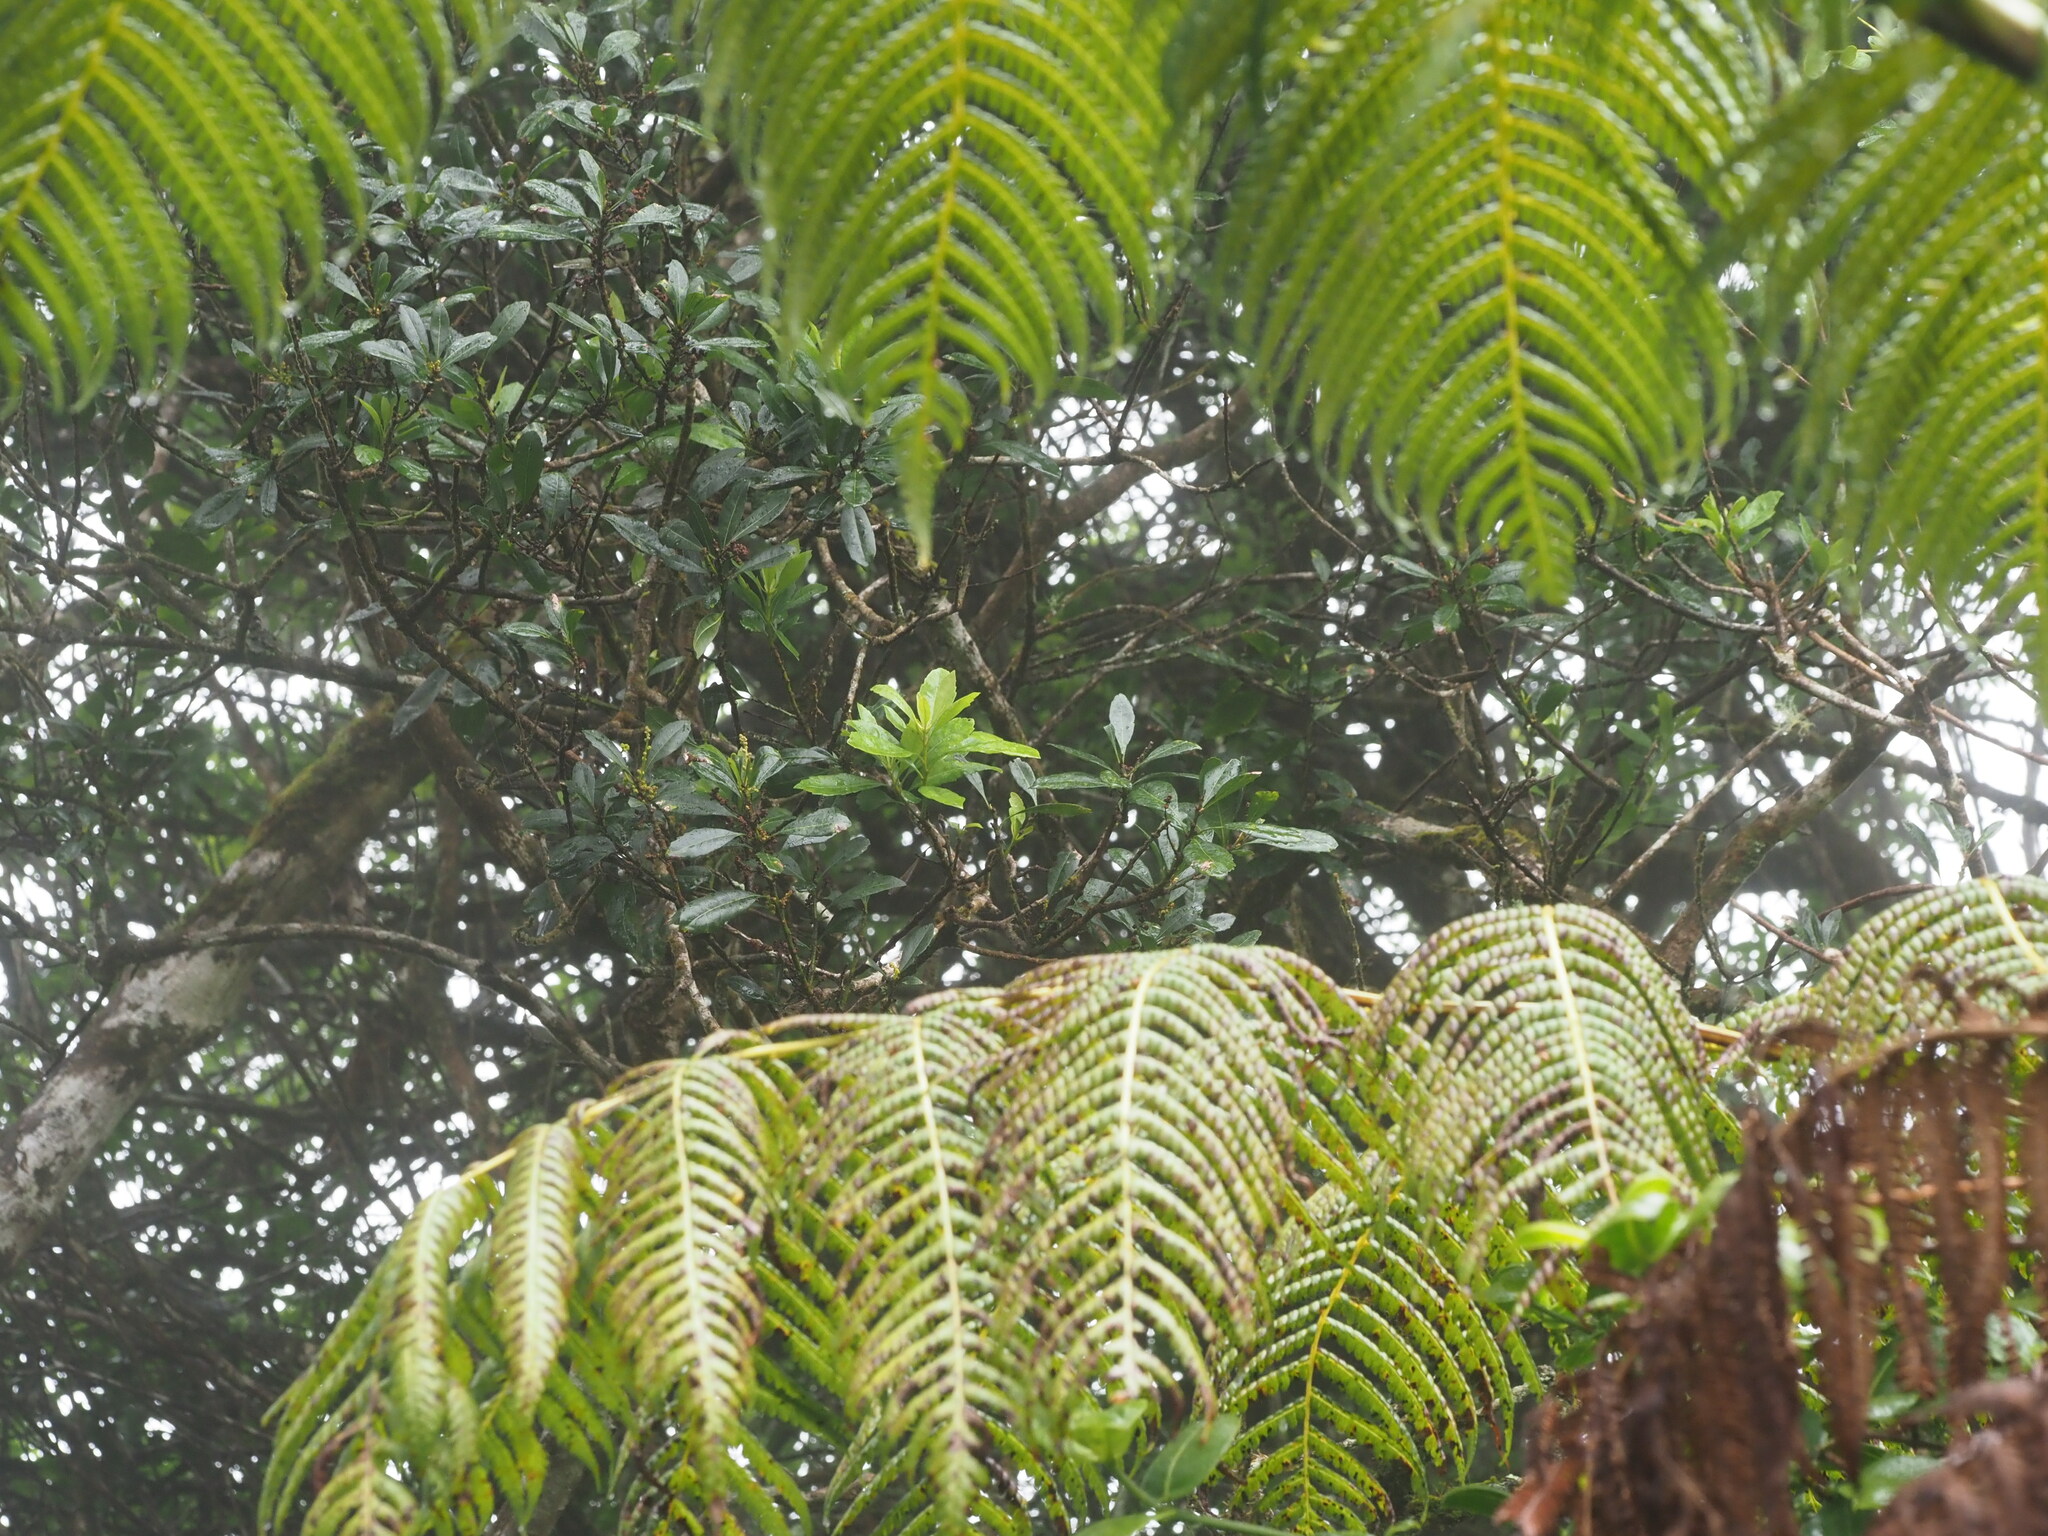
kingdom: Plantae
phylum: Tracheophyta
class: Magnoliopsida
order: Fagales
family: Myricaceae
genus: Morella
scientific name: Morella faya
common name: Firetree
